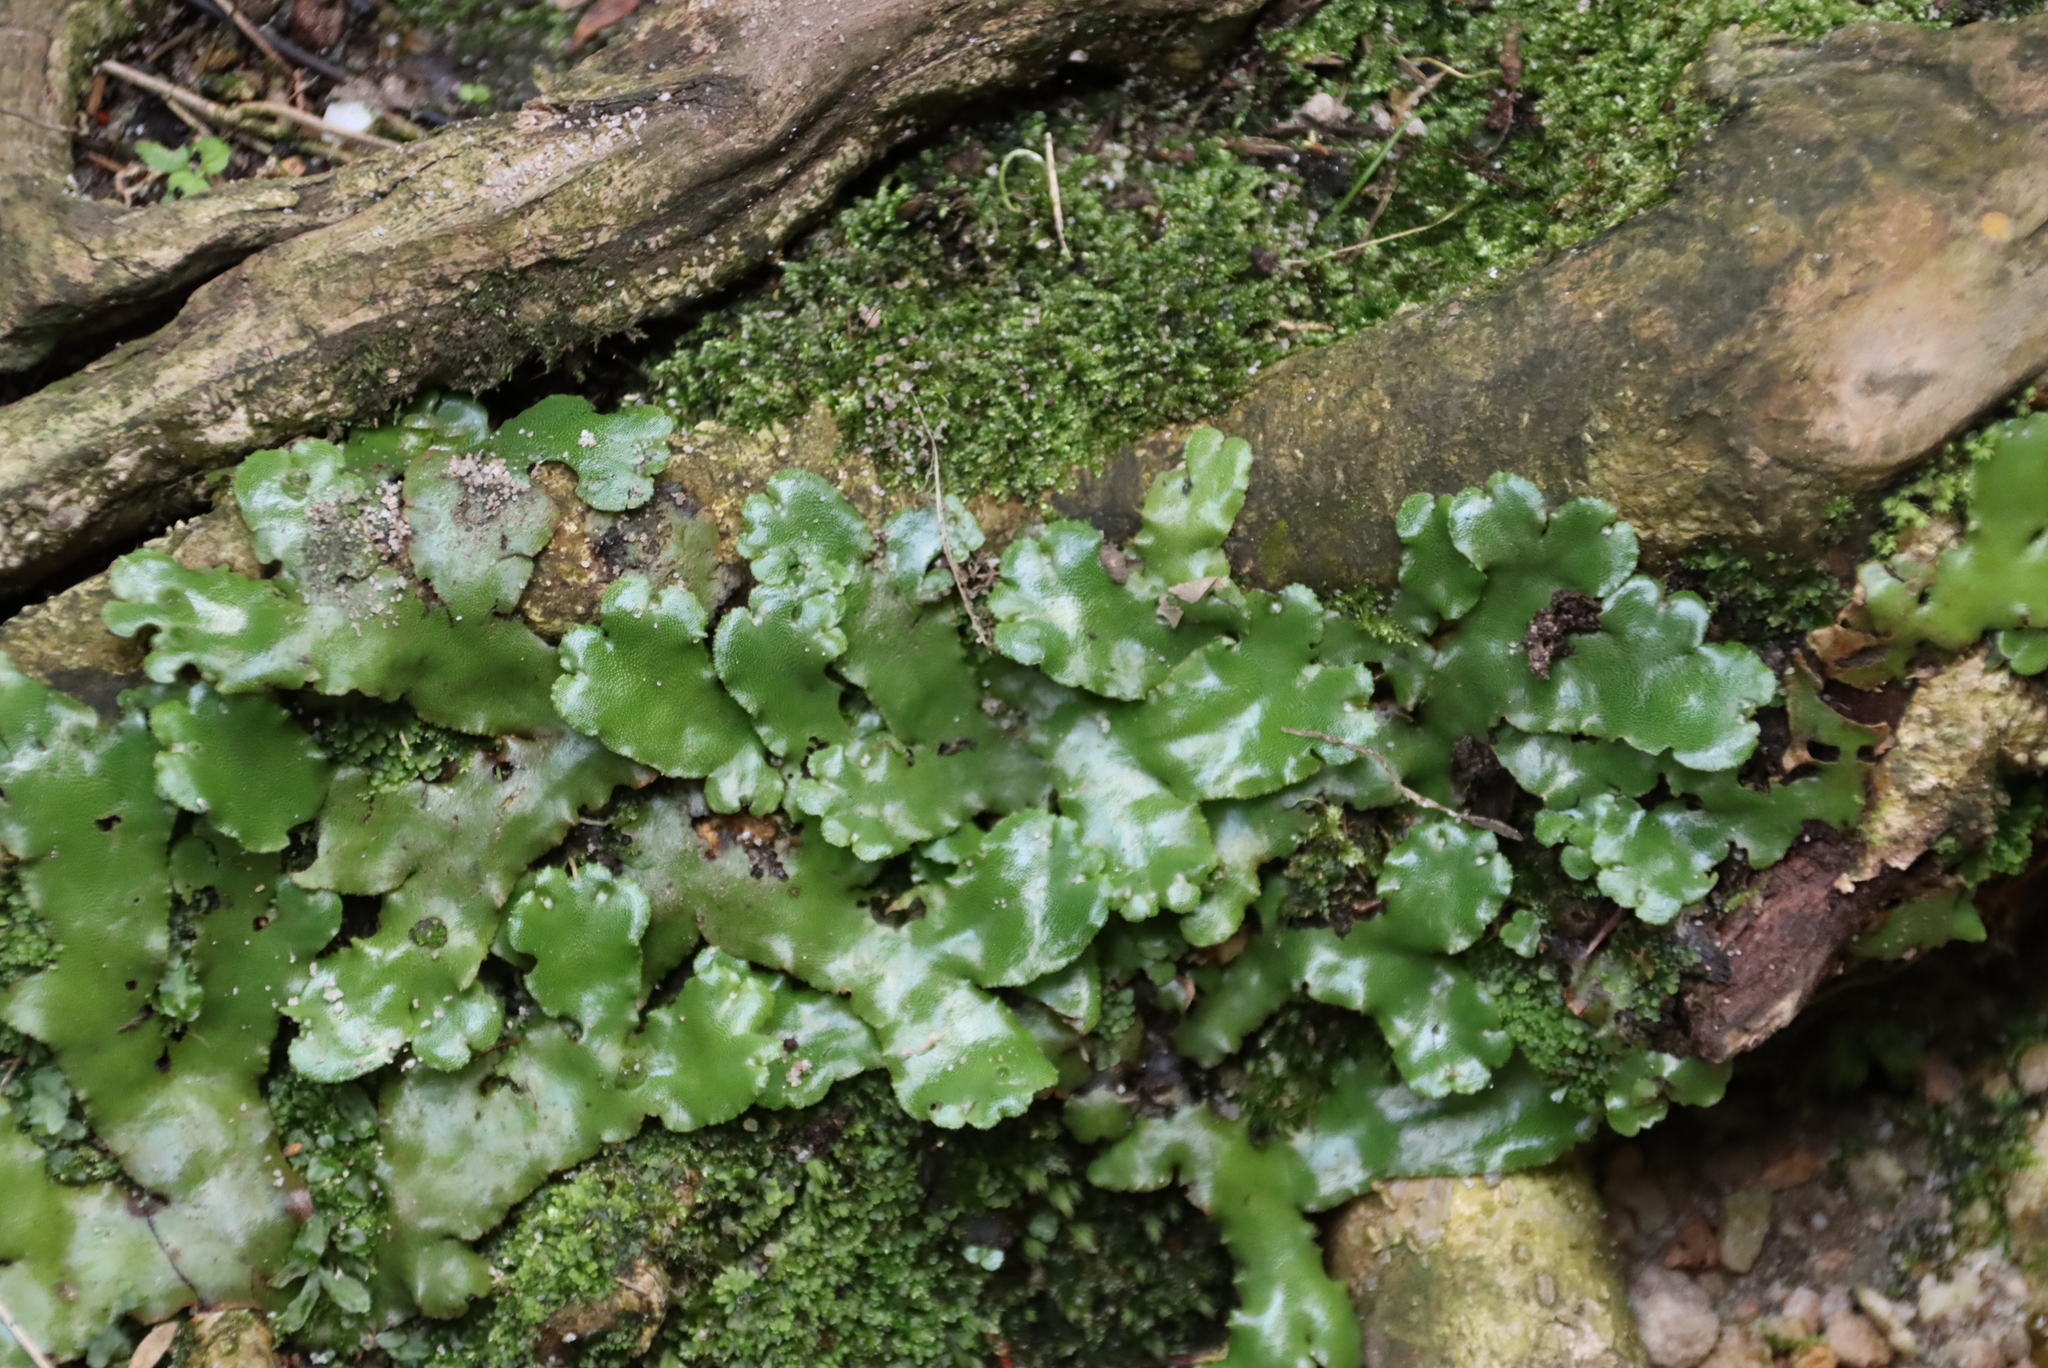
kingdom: Plantae
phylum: Marchantiophyta
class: Marchantiopsida
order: Marchantiales
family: Marchantiaceae
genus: Marchantia
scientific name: Marchantia berteroana
